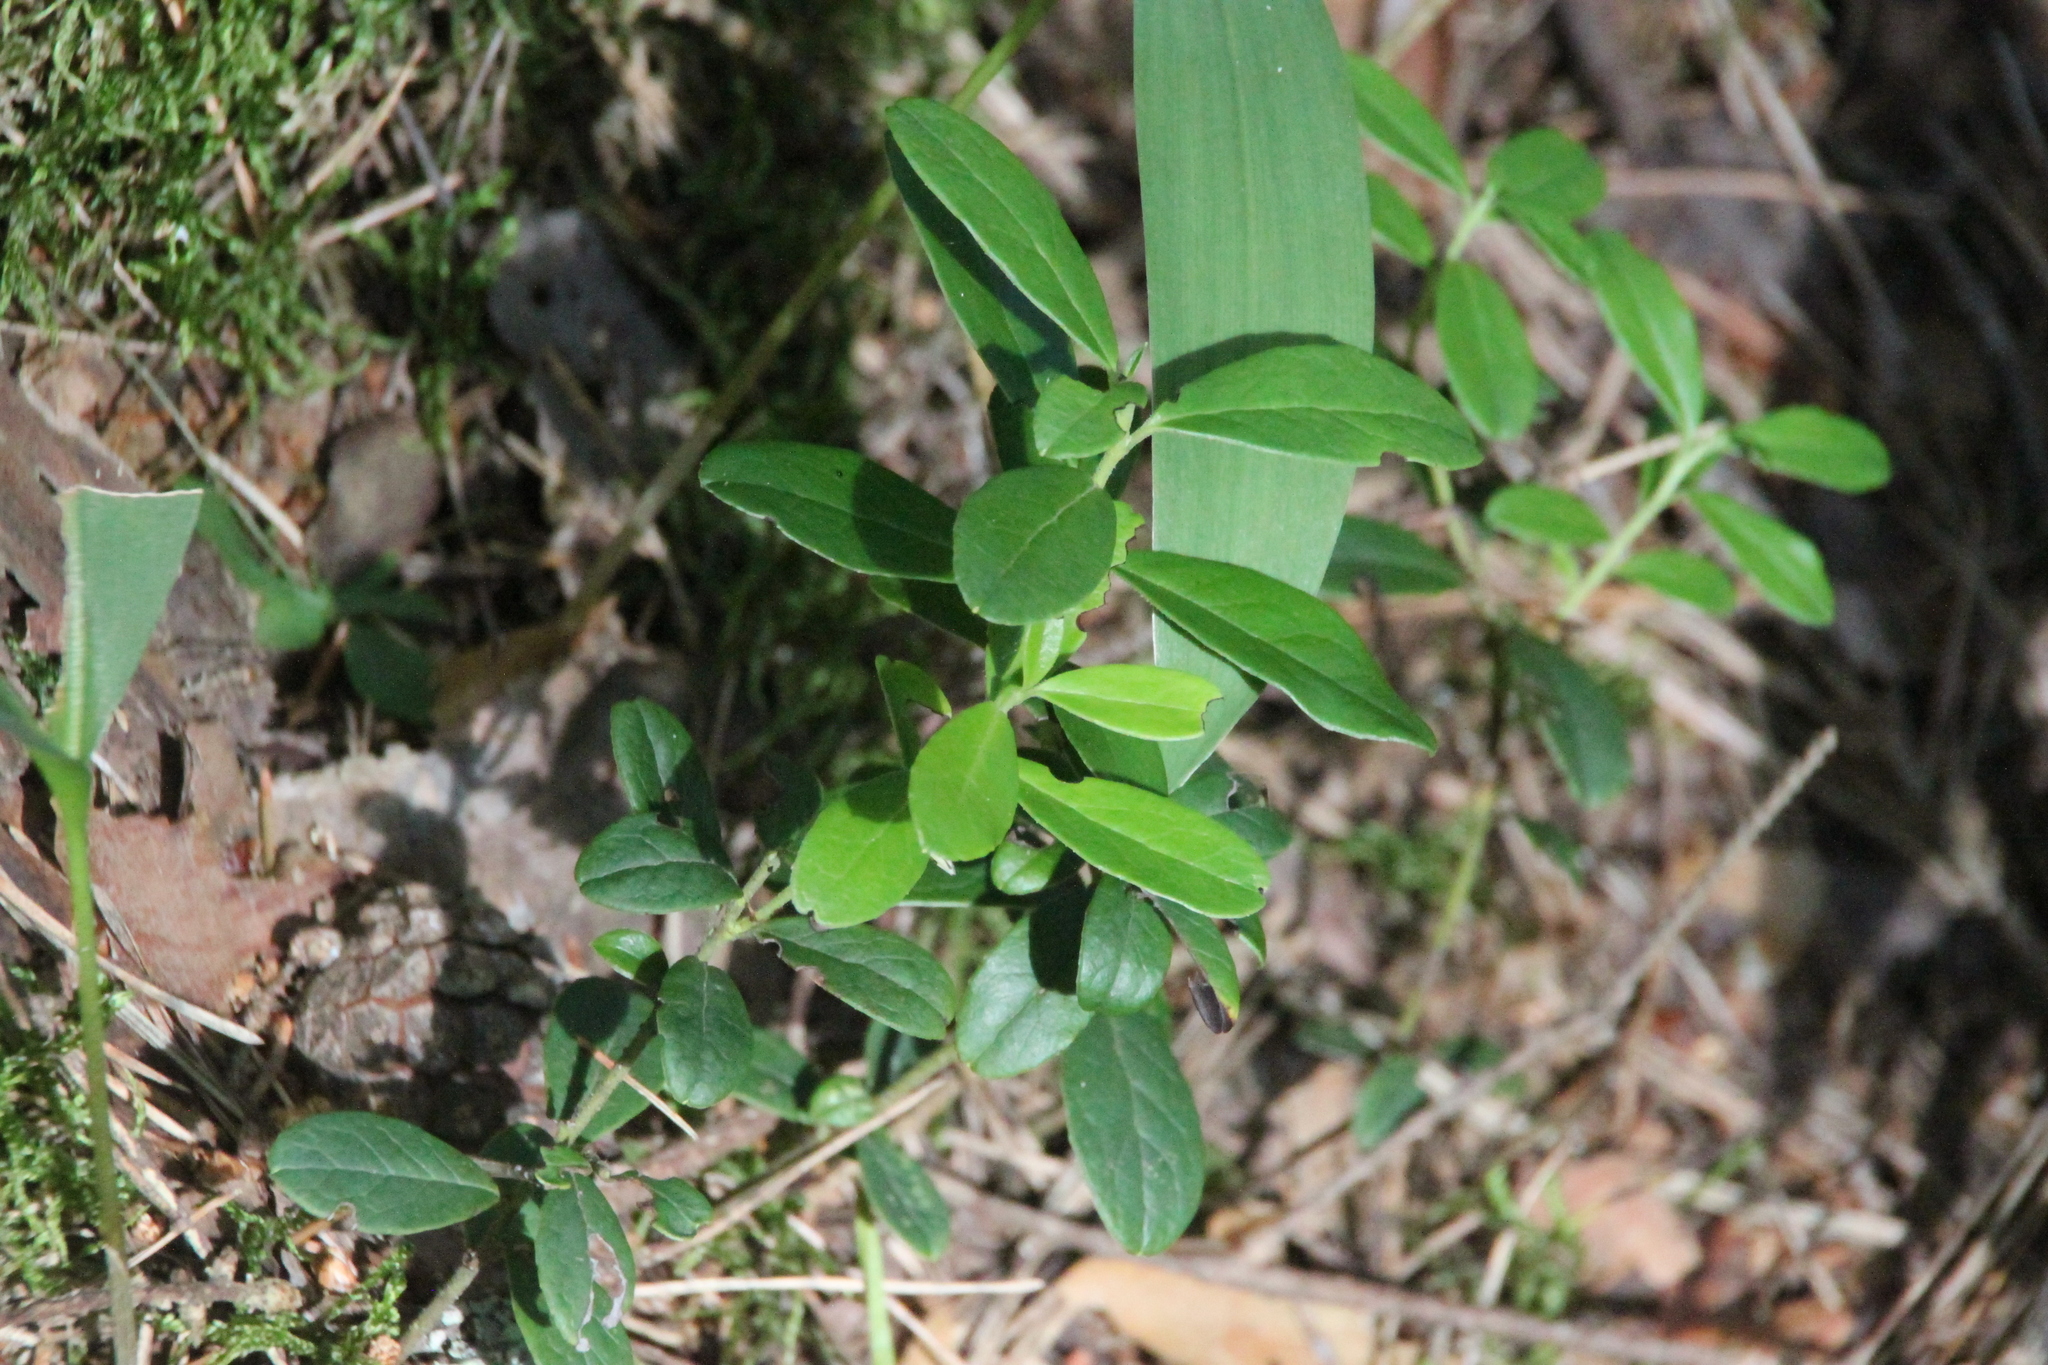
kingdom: Plantae
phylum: Tracheophyta
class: Magnoliopsida
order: Ericales
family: Ericaceae
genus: Vaccinium
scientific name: Vaccinium vitis-idaea
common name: Cowberry
